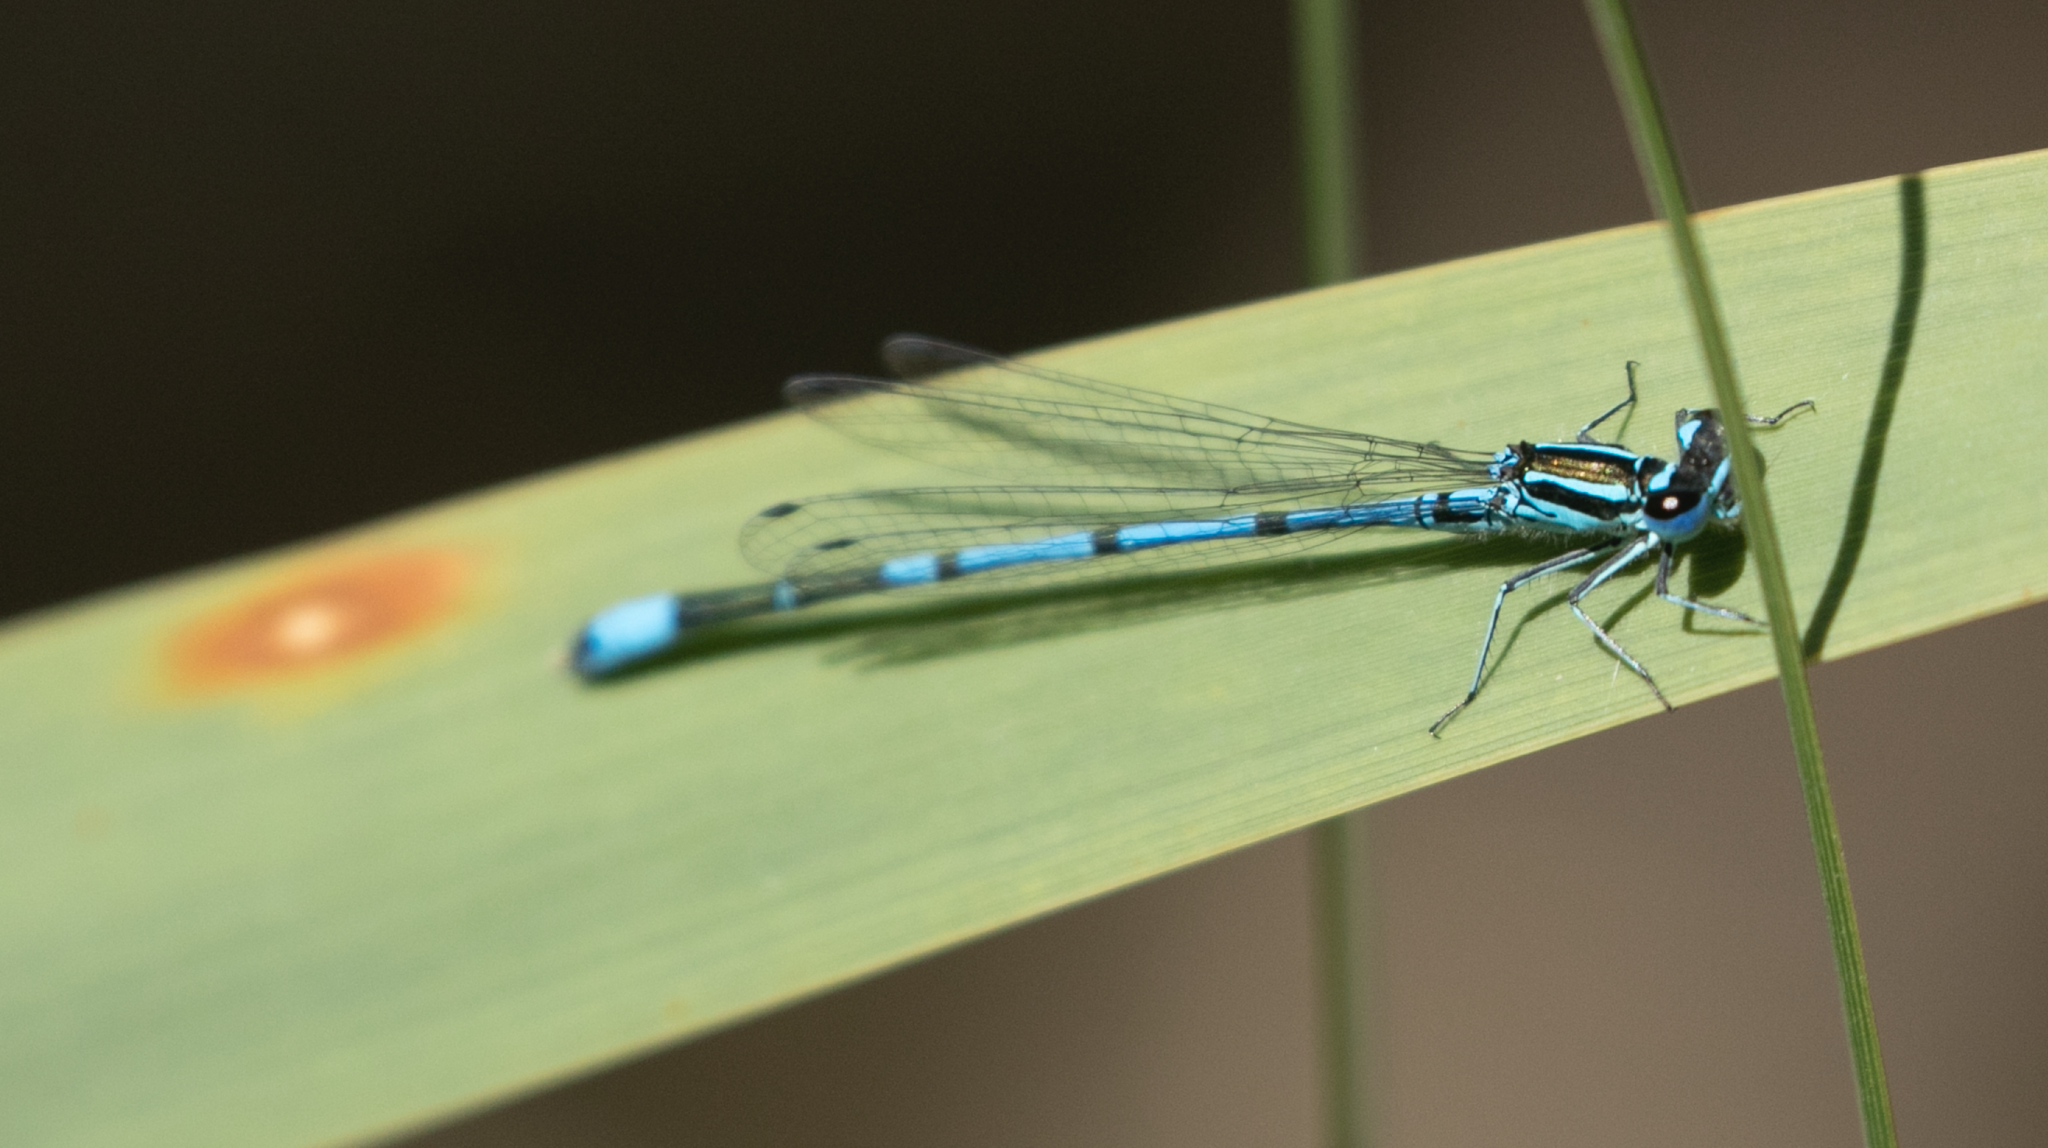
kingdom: Animalia
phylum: Arthropoda
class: Insecta
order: Odonata
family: Coenagrionidae
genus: Coenagrion
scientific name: Coenagrion puella
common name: Azure damselfly
